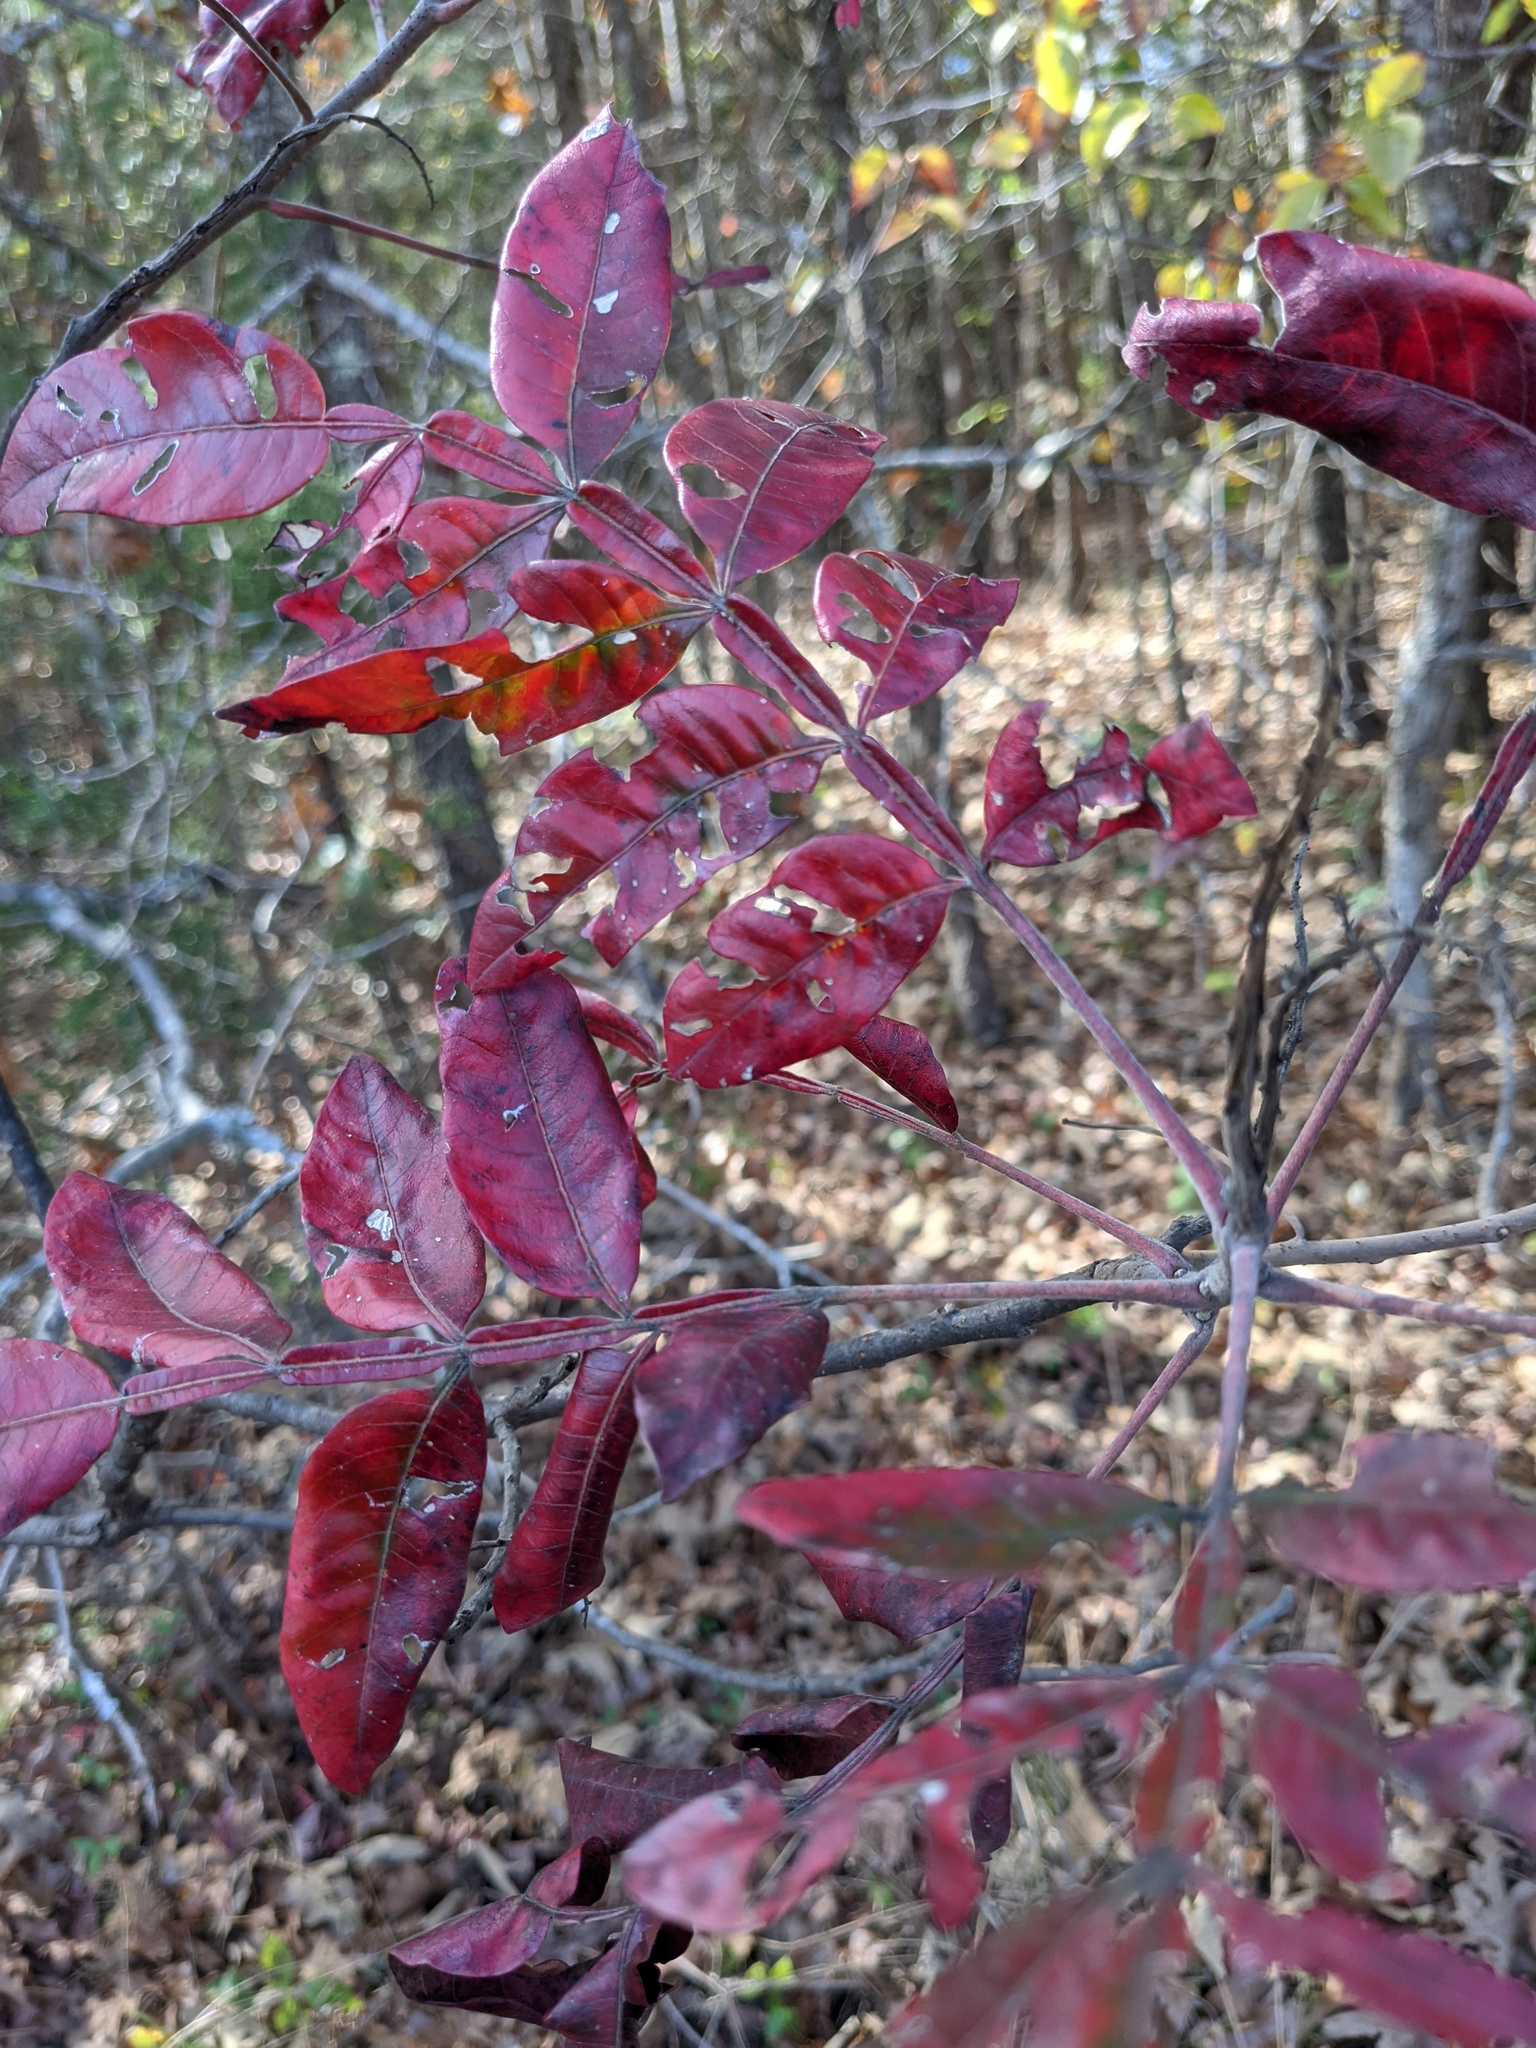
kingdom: Plantae
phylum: Tracheophyta
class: Magnoliopsida
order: Sapindales
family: Anacardiaceae
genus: Rhus
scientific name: Rhus copallina
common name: Shining sumac
